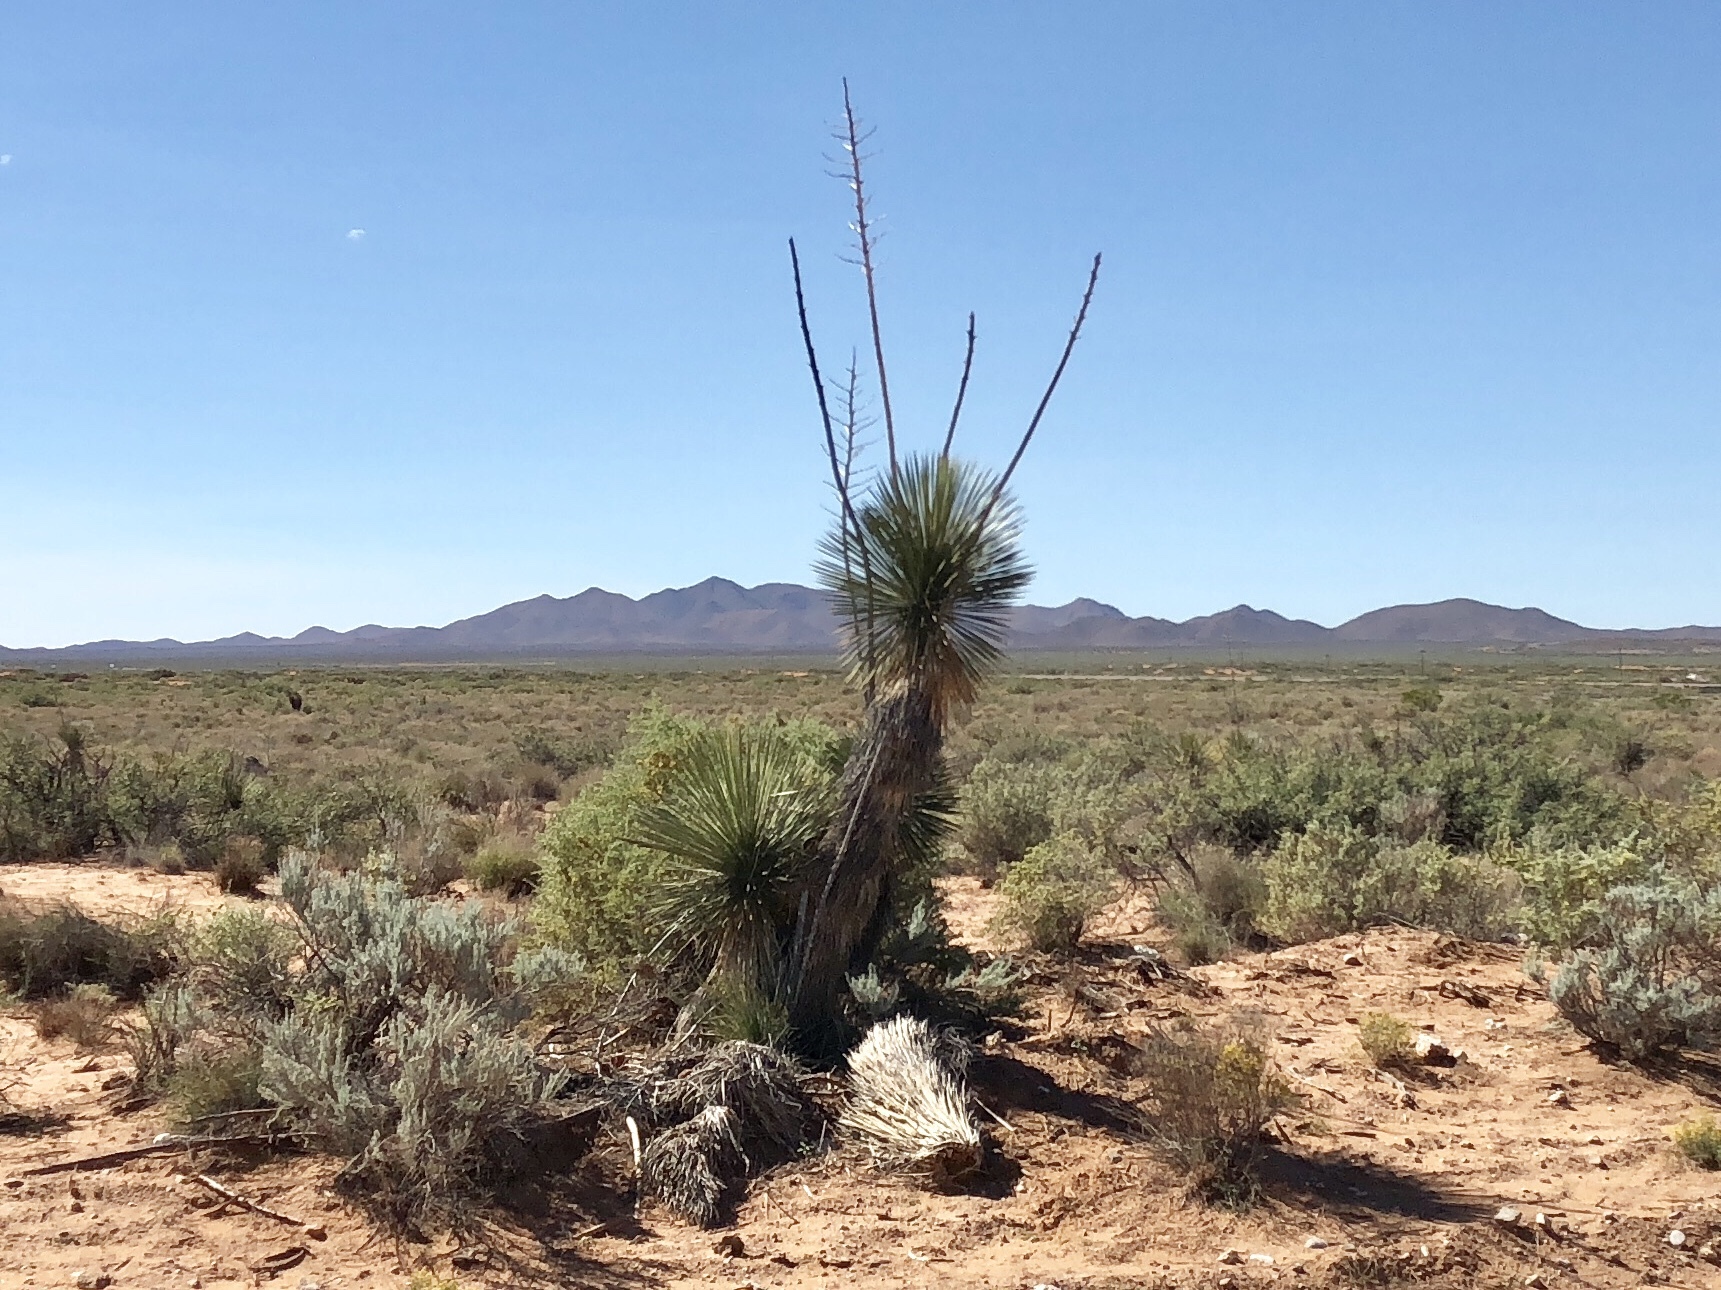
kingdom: Plantae
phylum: Tracheophyta
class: Liliopsida
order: Asparagales
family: Asparagaceae
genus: Yucca
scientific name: Yucca elata
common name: Palmella
